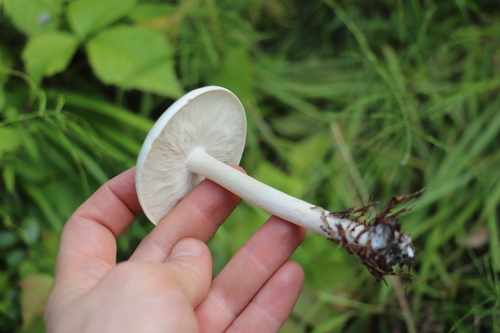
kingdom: Fungi
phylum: Basidiomycota
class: Agaricomycetes
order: Agaricales
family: Tricholomataceae
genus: Melanoleuca
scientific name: Melanoleuca strictipes
